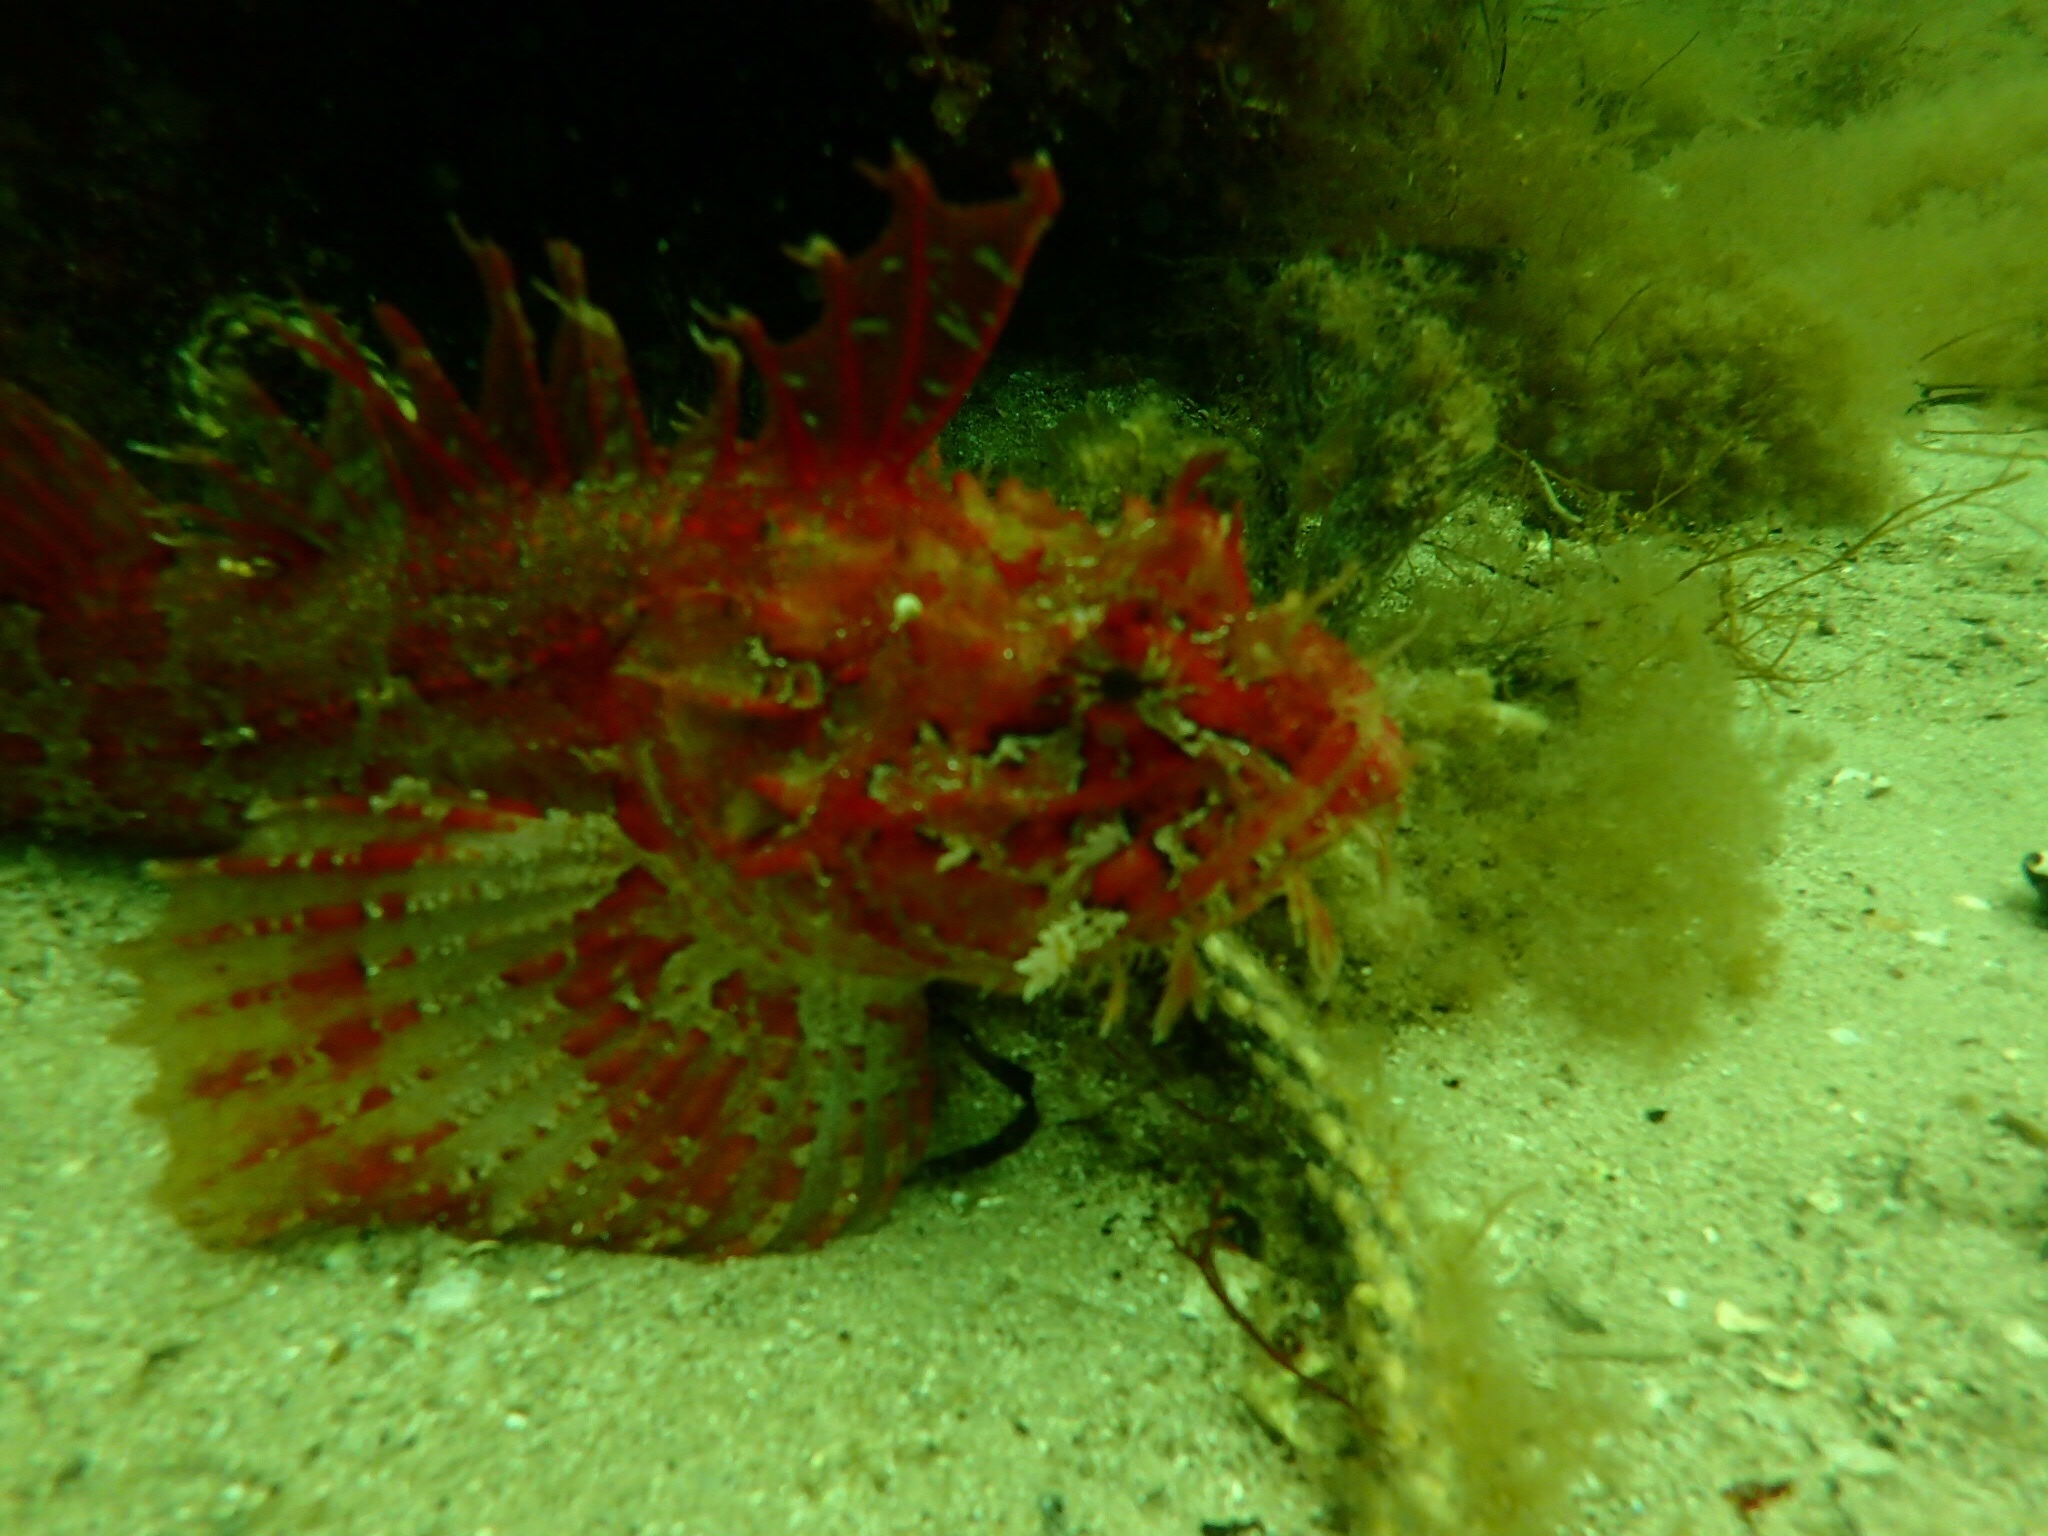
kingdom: Animalia
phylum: Chordata
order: Scorpaeniformes
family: Hemitripteridae
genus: Hemitripterus
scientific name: Hemitripterus americanus
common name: Sea raven
